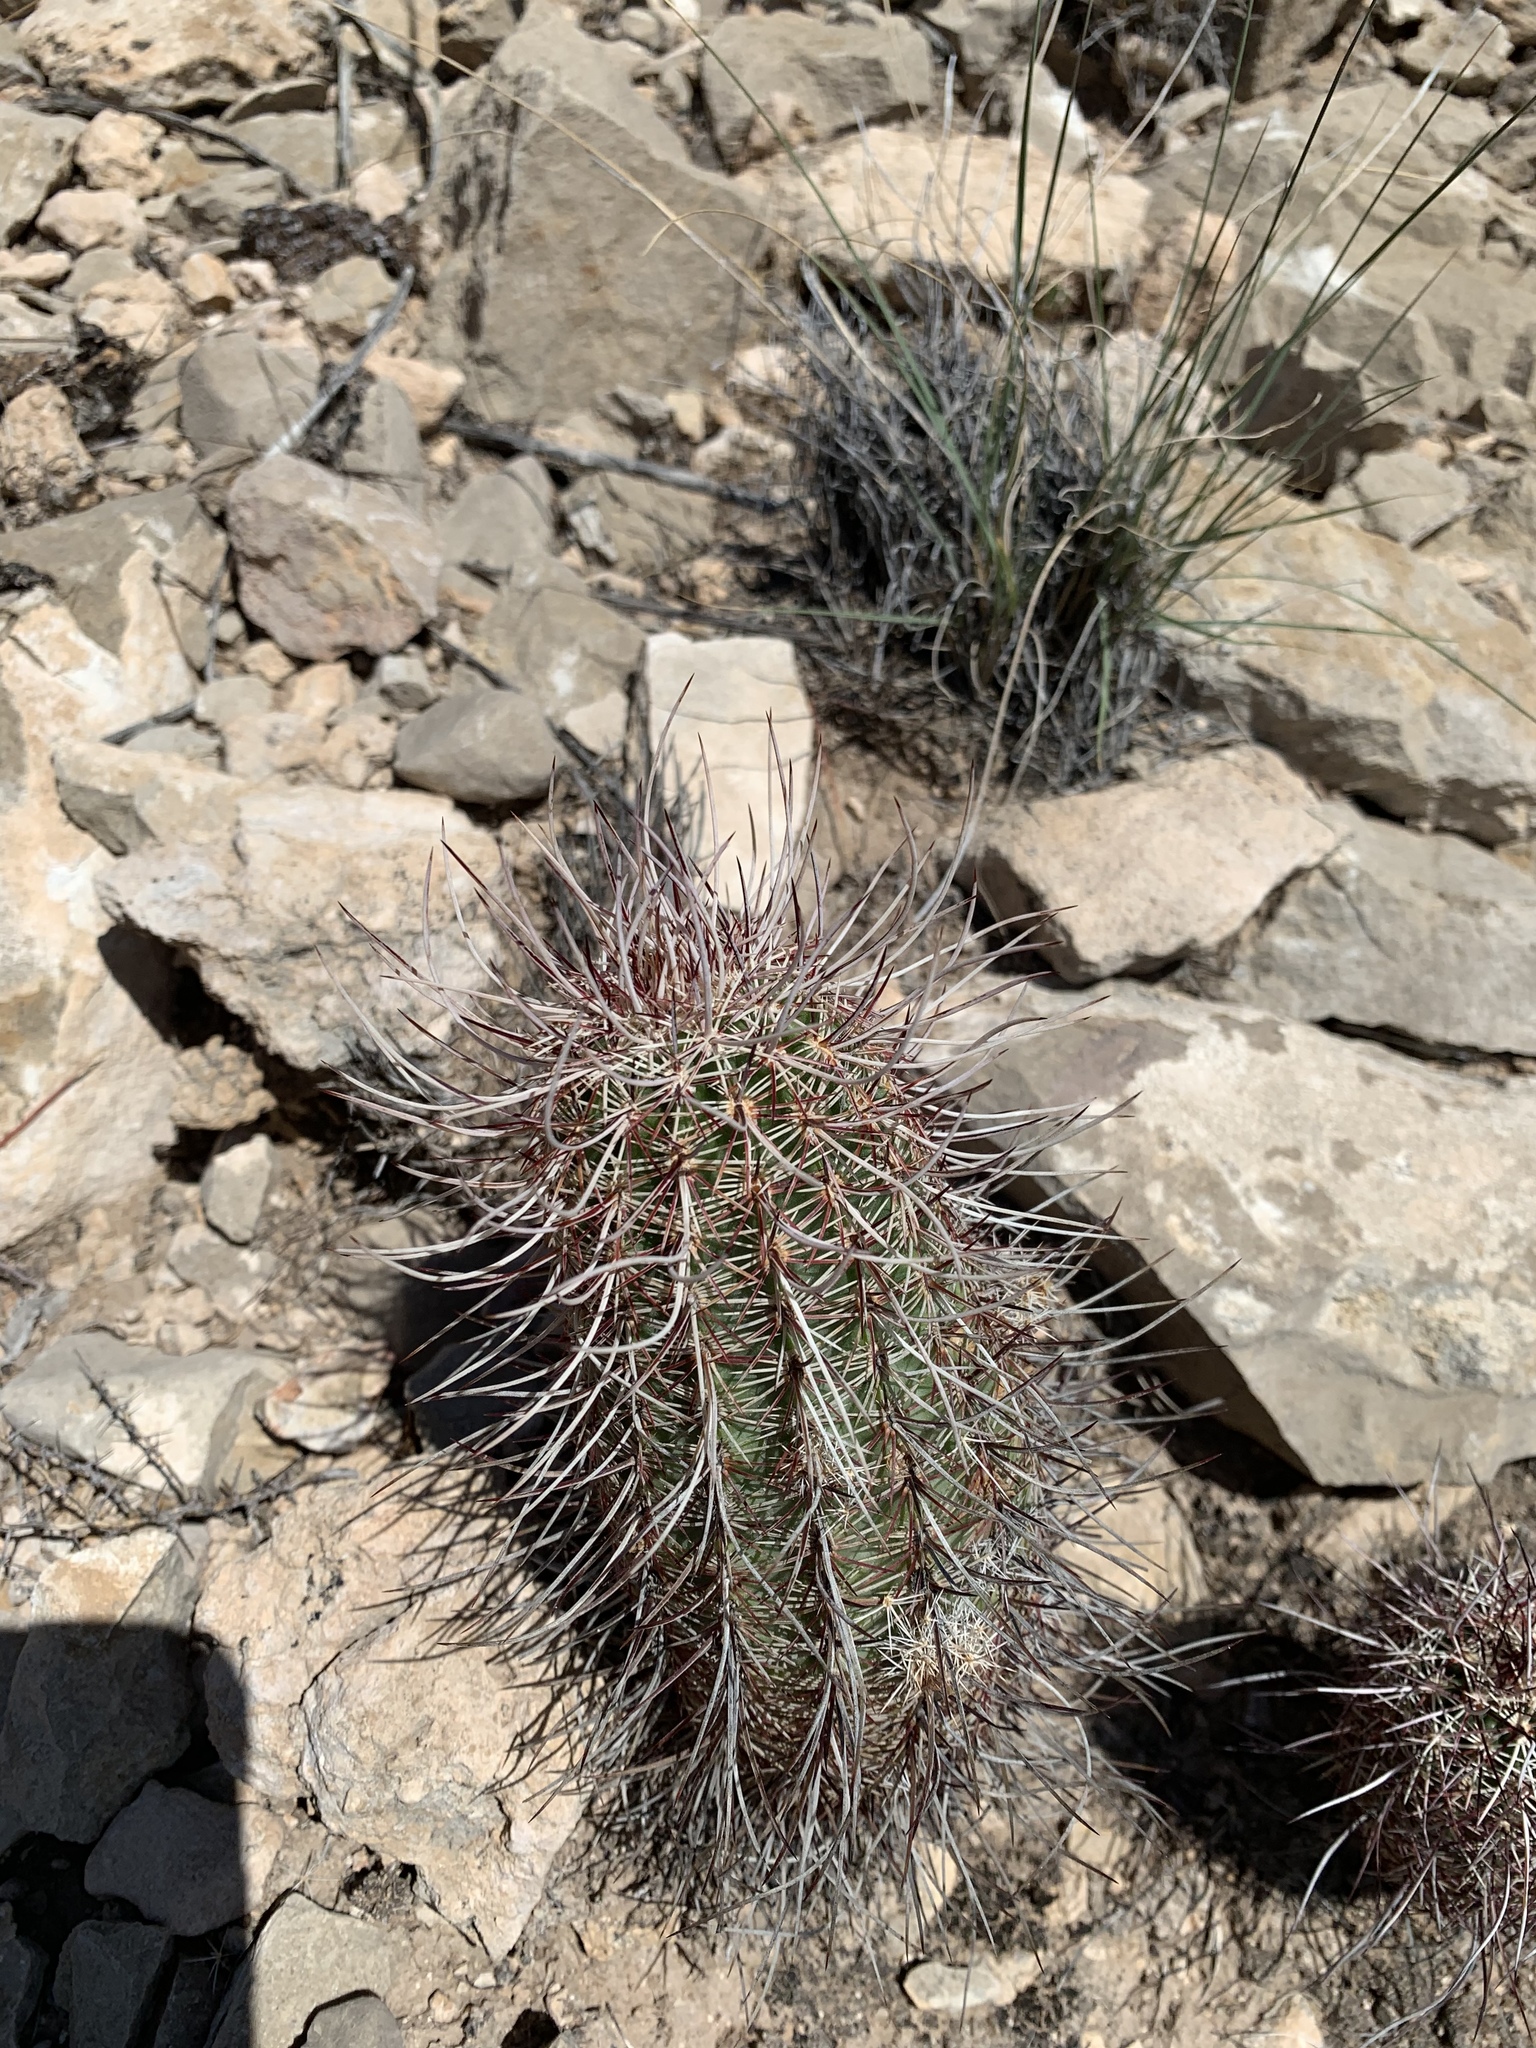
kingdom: Plantae
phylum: Tracheophyta
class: Magnoliopsida
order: Caryophyllales
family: Cactaceae
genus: Echinocereus
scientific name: Echinocereus viridiflorus
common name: Nylon hedgehog cactus
